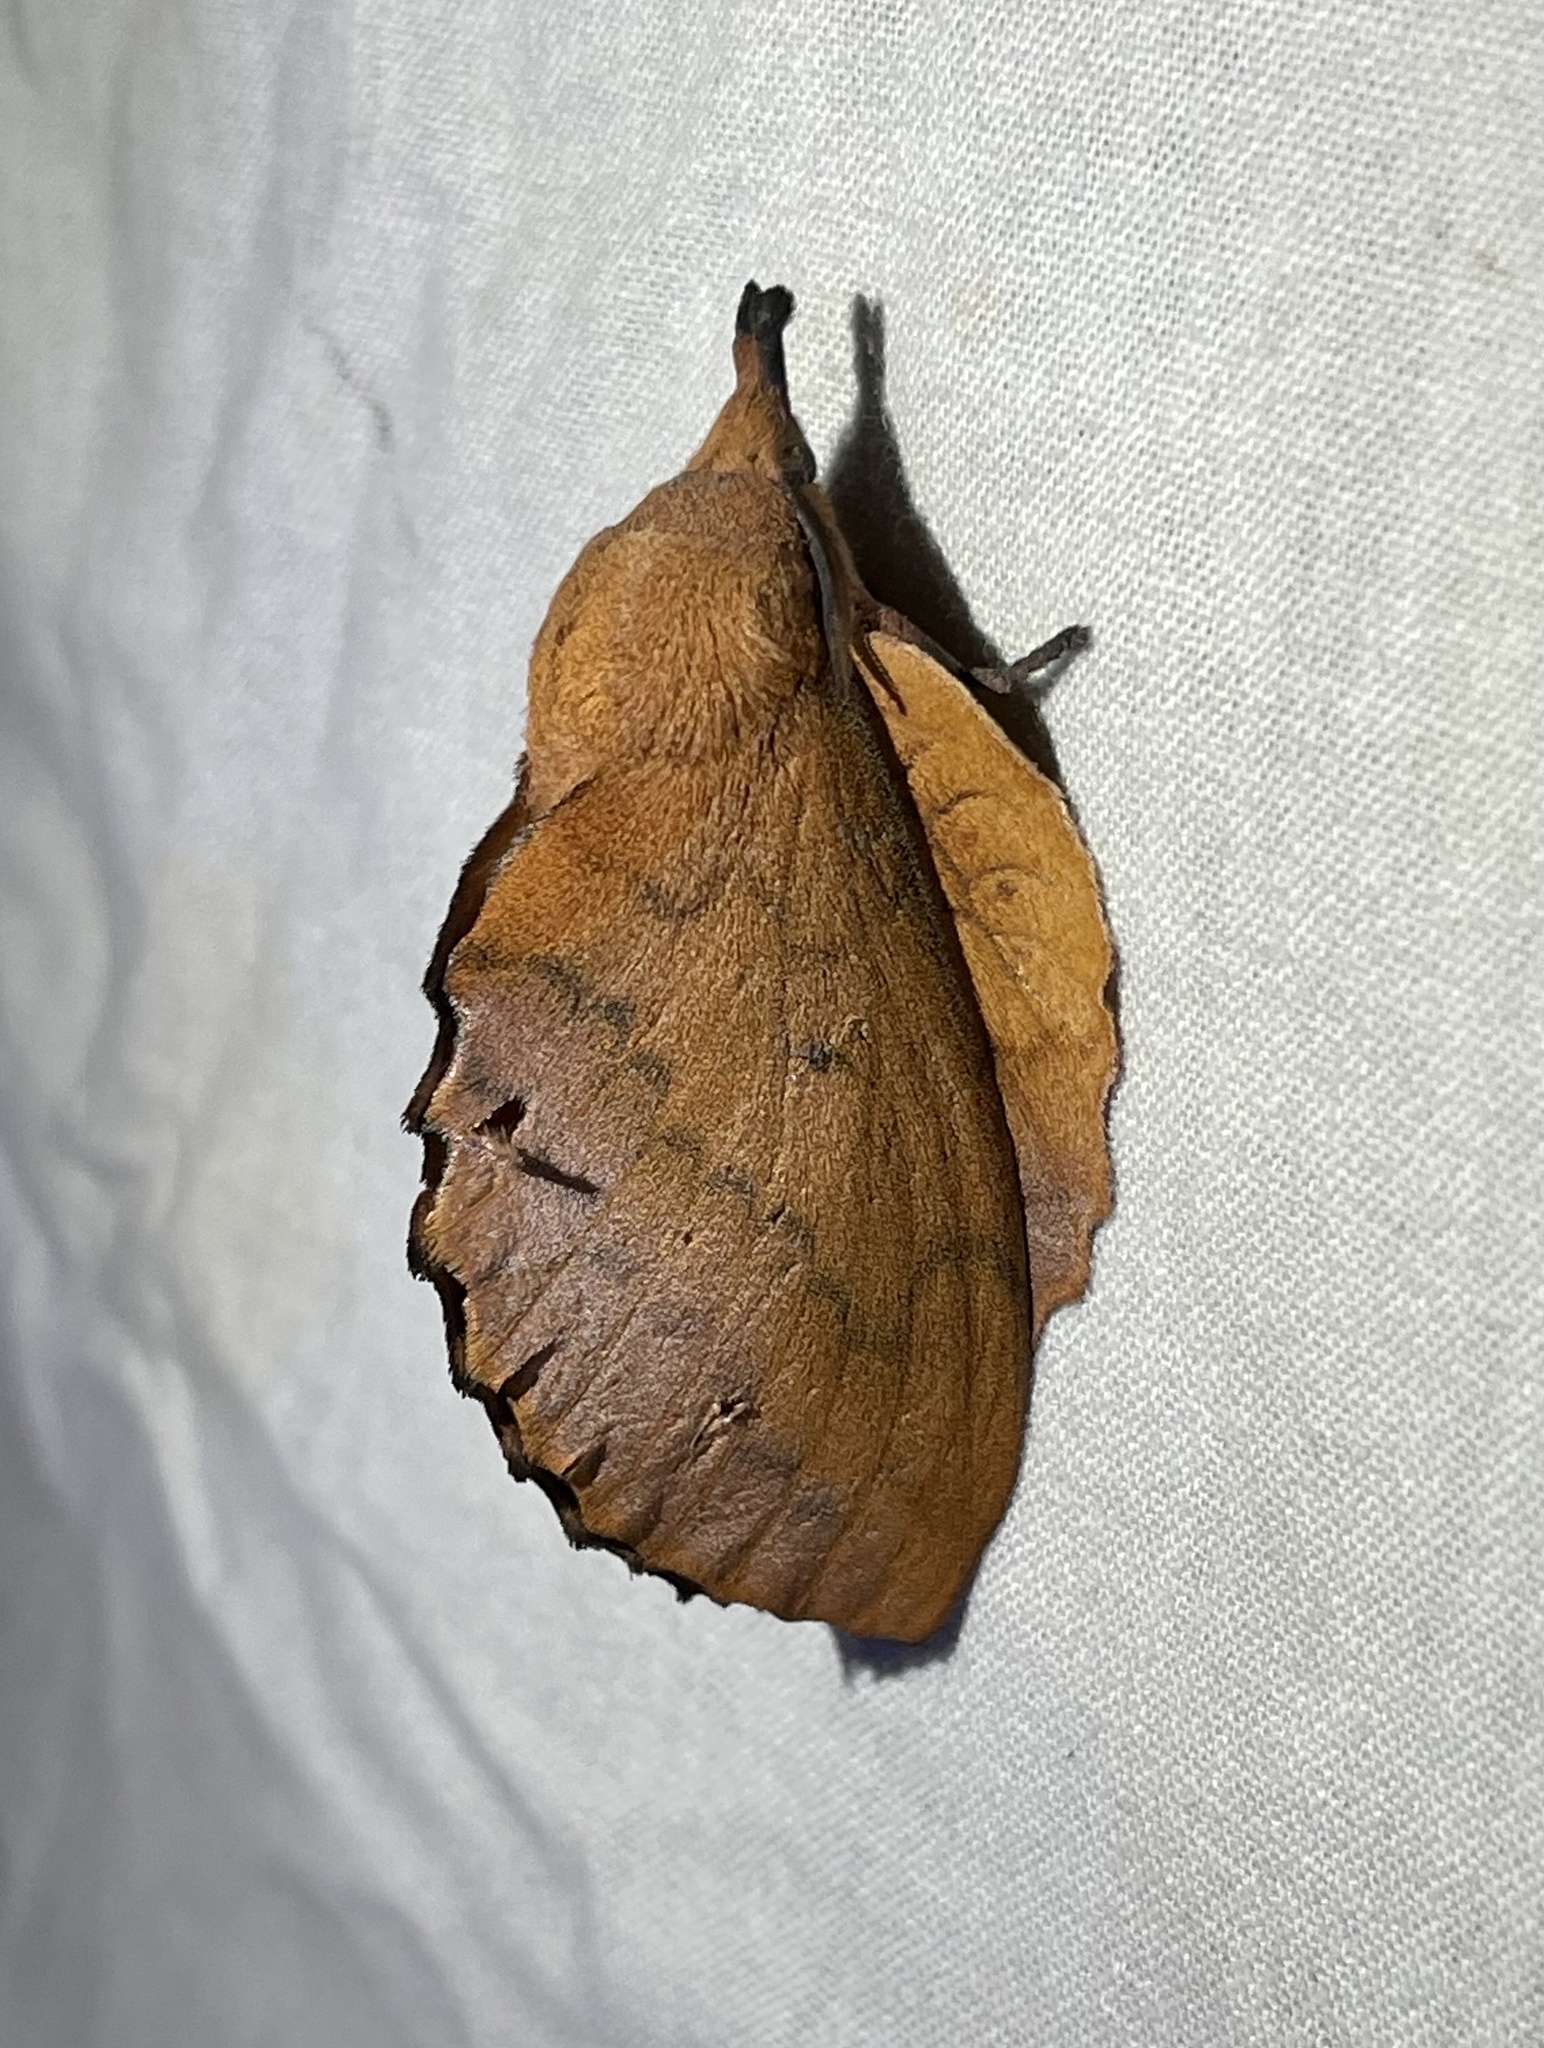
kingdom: Animalia
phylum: Arthropoda
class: Insecta
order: Lepidoptera
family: Lasiocampidae
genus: Gastropacha
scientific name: Gastropacha quercifolia
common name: Lappet
